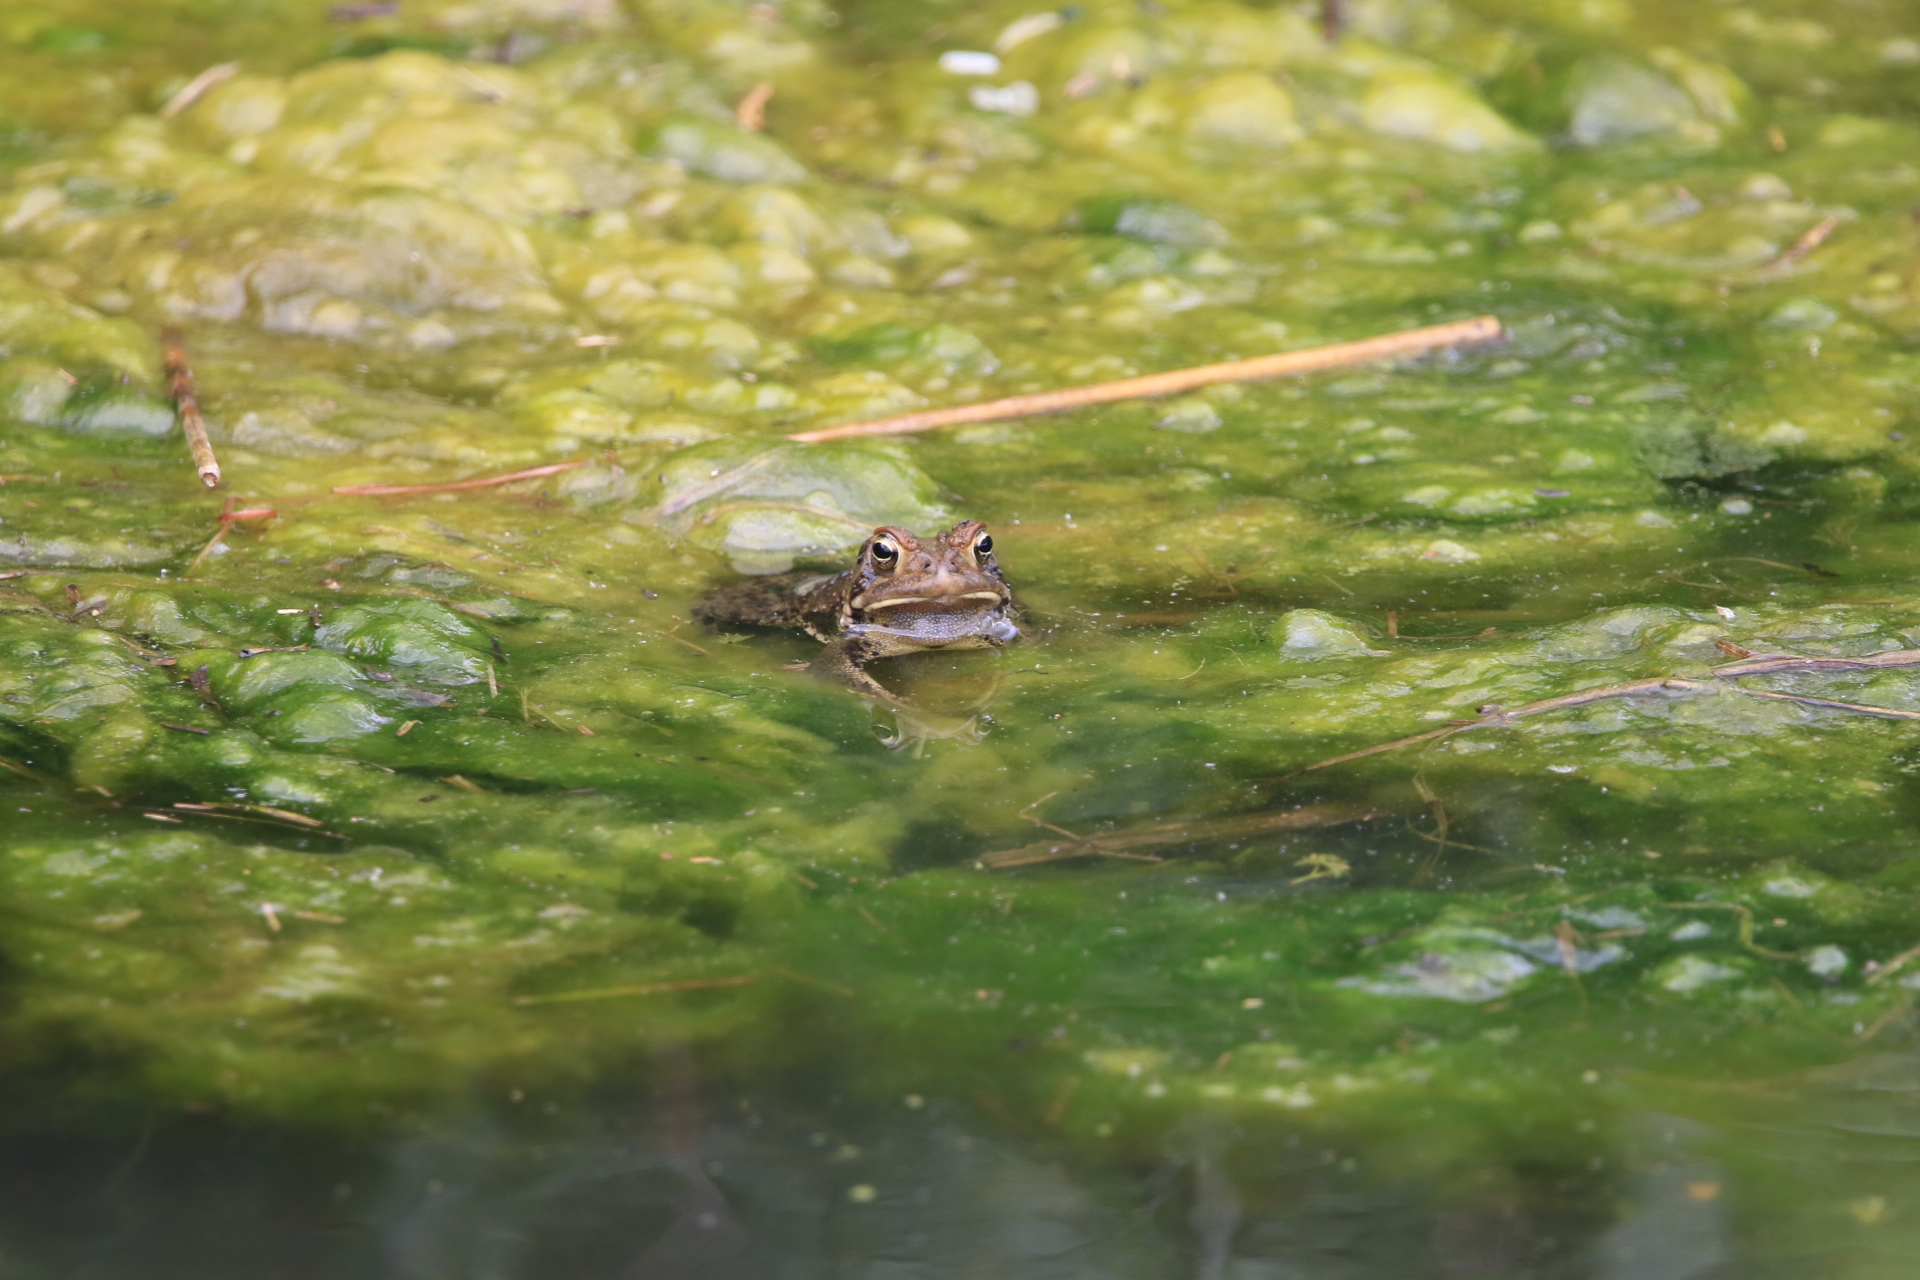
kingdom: Animalia
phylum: Chordata
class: Amphibia
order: Anura
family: Bufonidae
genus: Anaxyrus
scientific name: Anaxyrus americanus
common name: American toad
